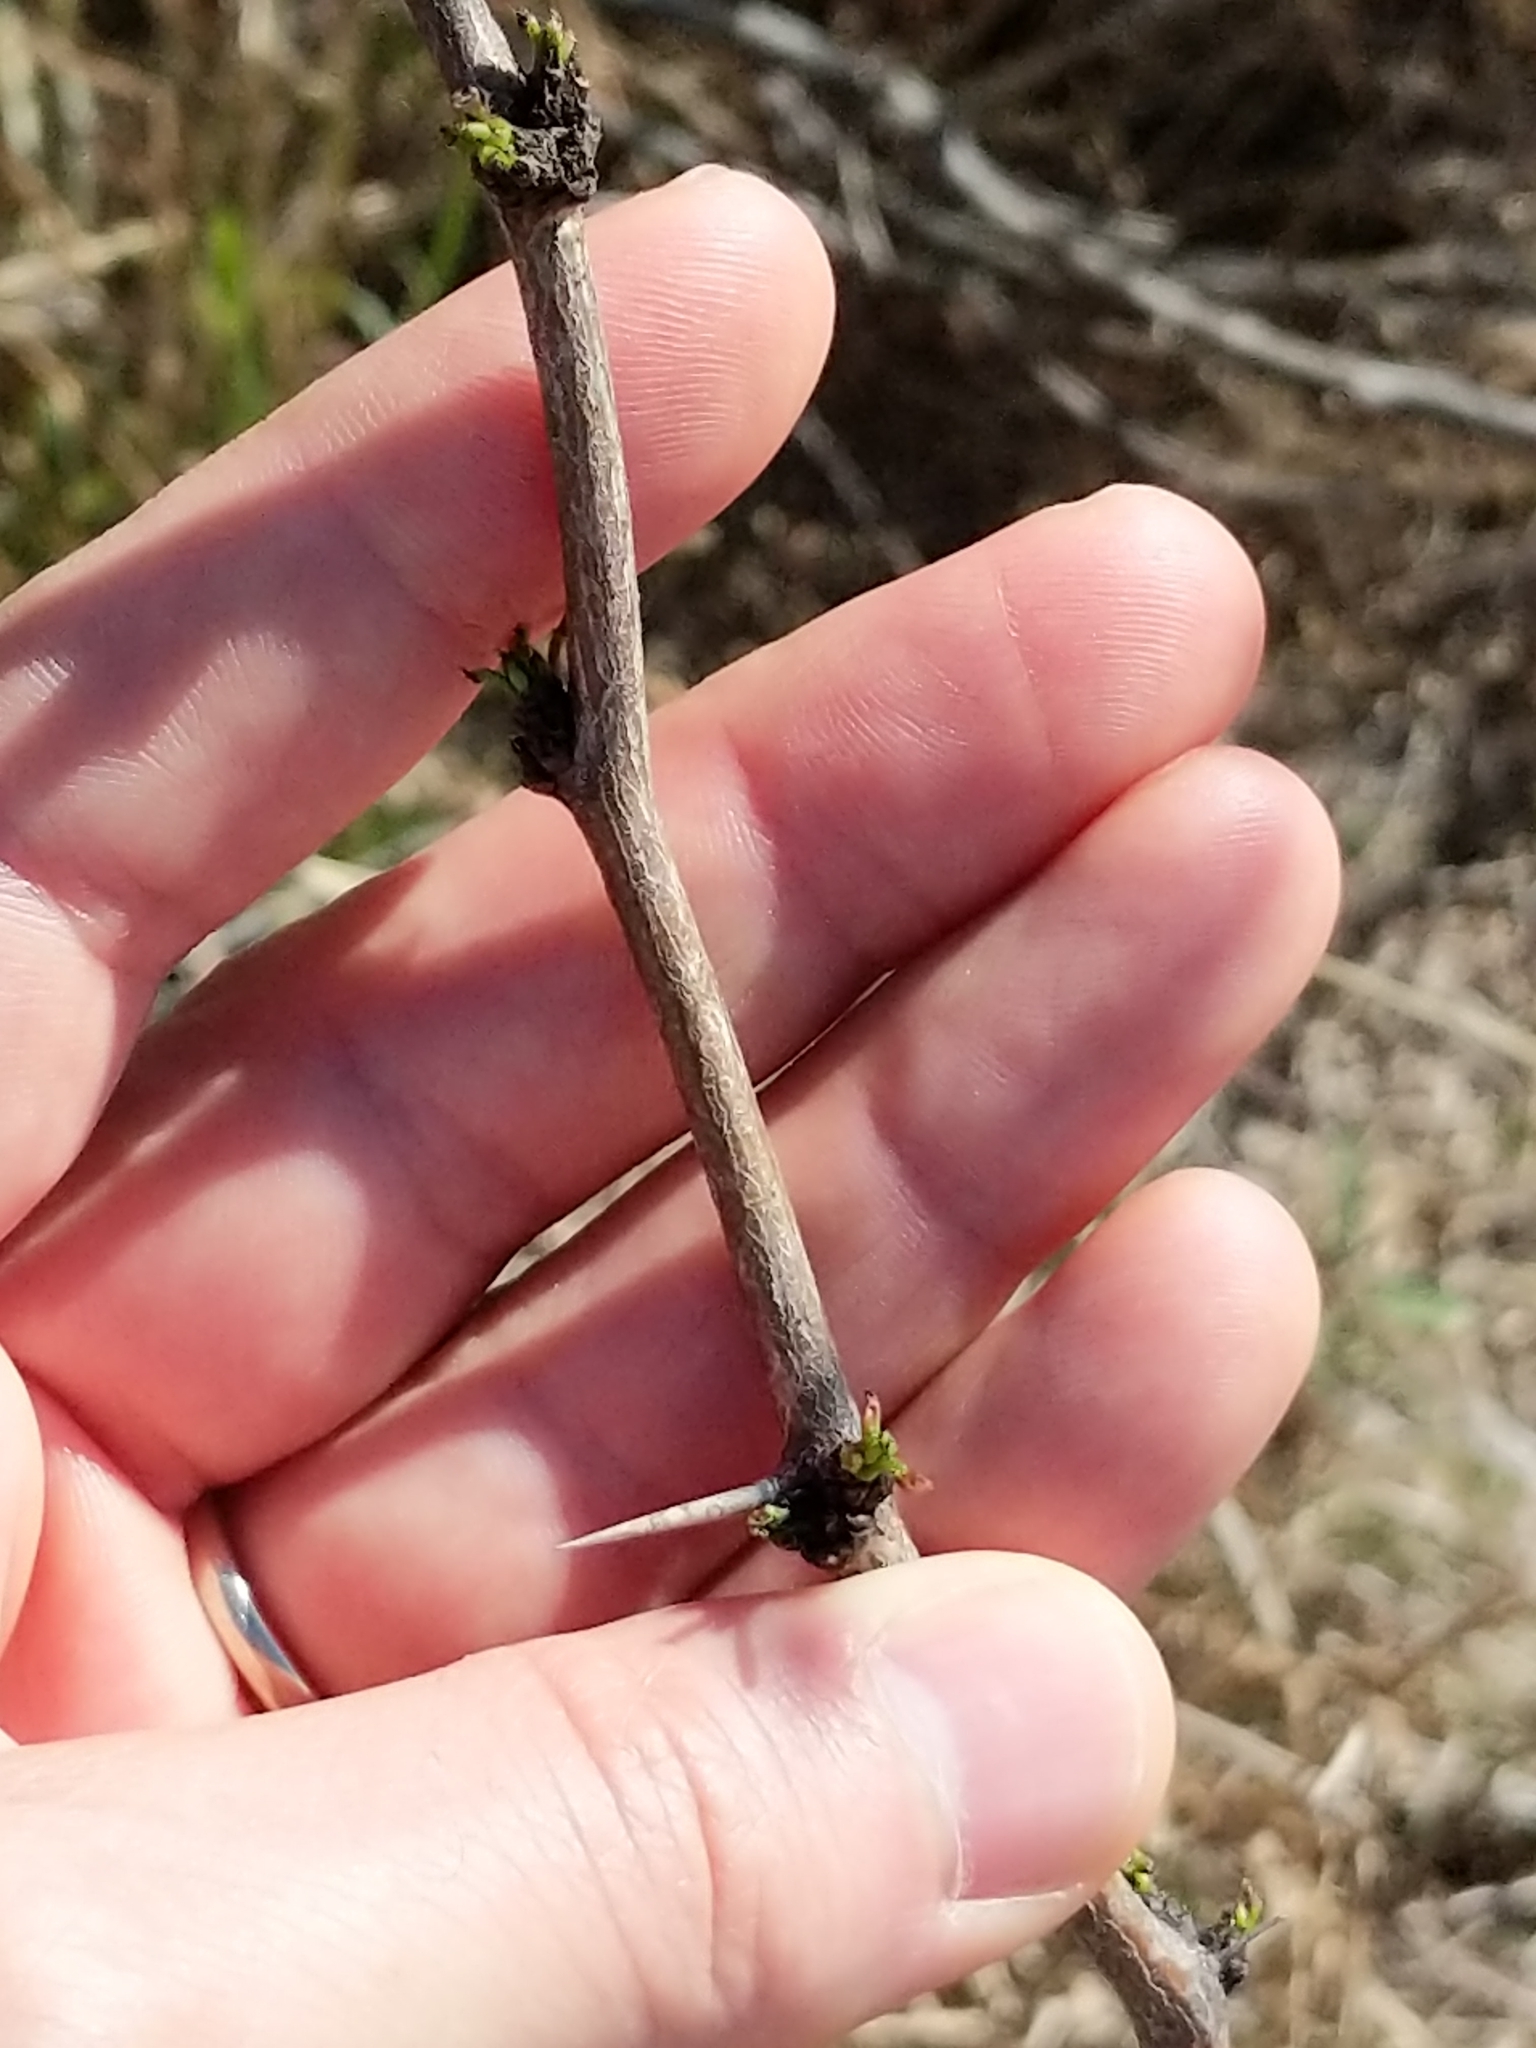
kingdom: Plantae
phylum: Tracheophyta
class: Magnoliopsida
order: Fabales
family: Fabaceae
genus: Prosopis
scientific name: Prosopis glandulosa
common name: Honey mesquite
